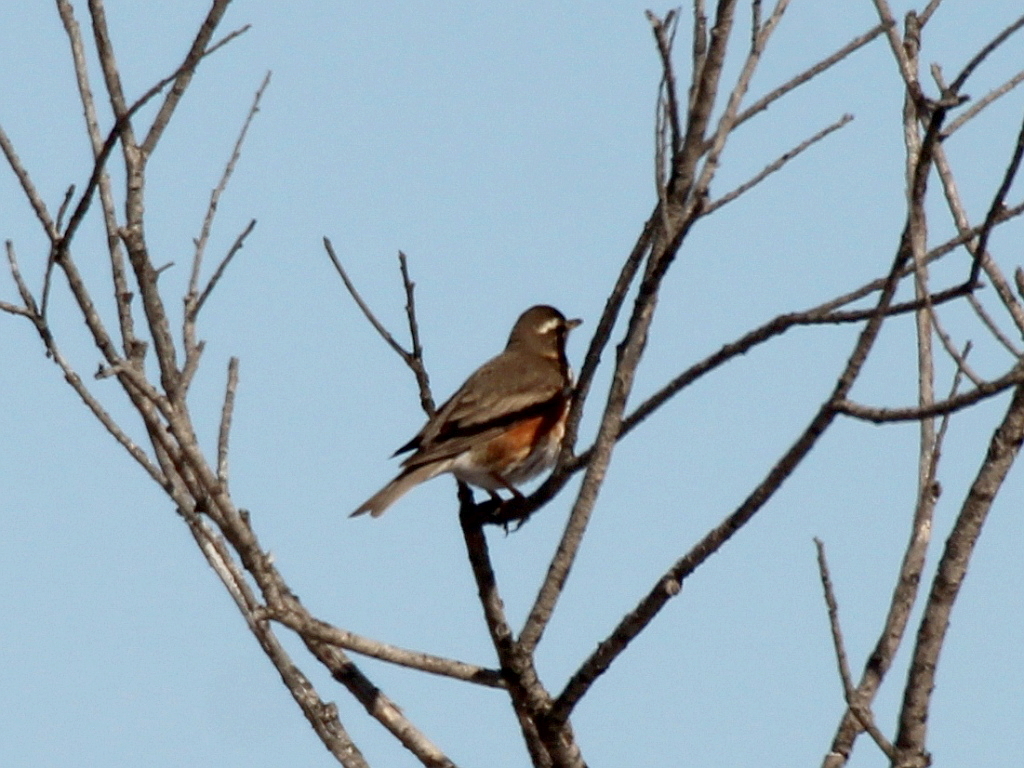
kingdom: Animalia
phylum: Chordata
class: Aves
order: Passeriformes
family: Turdidae
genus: Turdus
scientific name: Turdus iliacus
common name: Redwing
